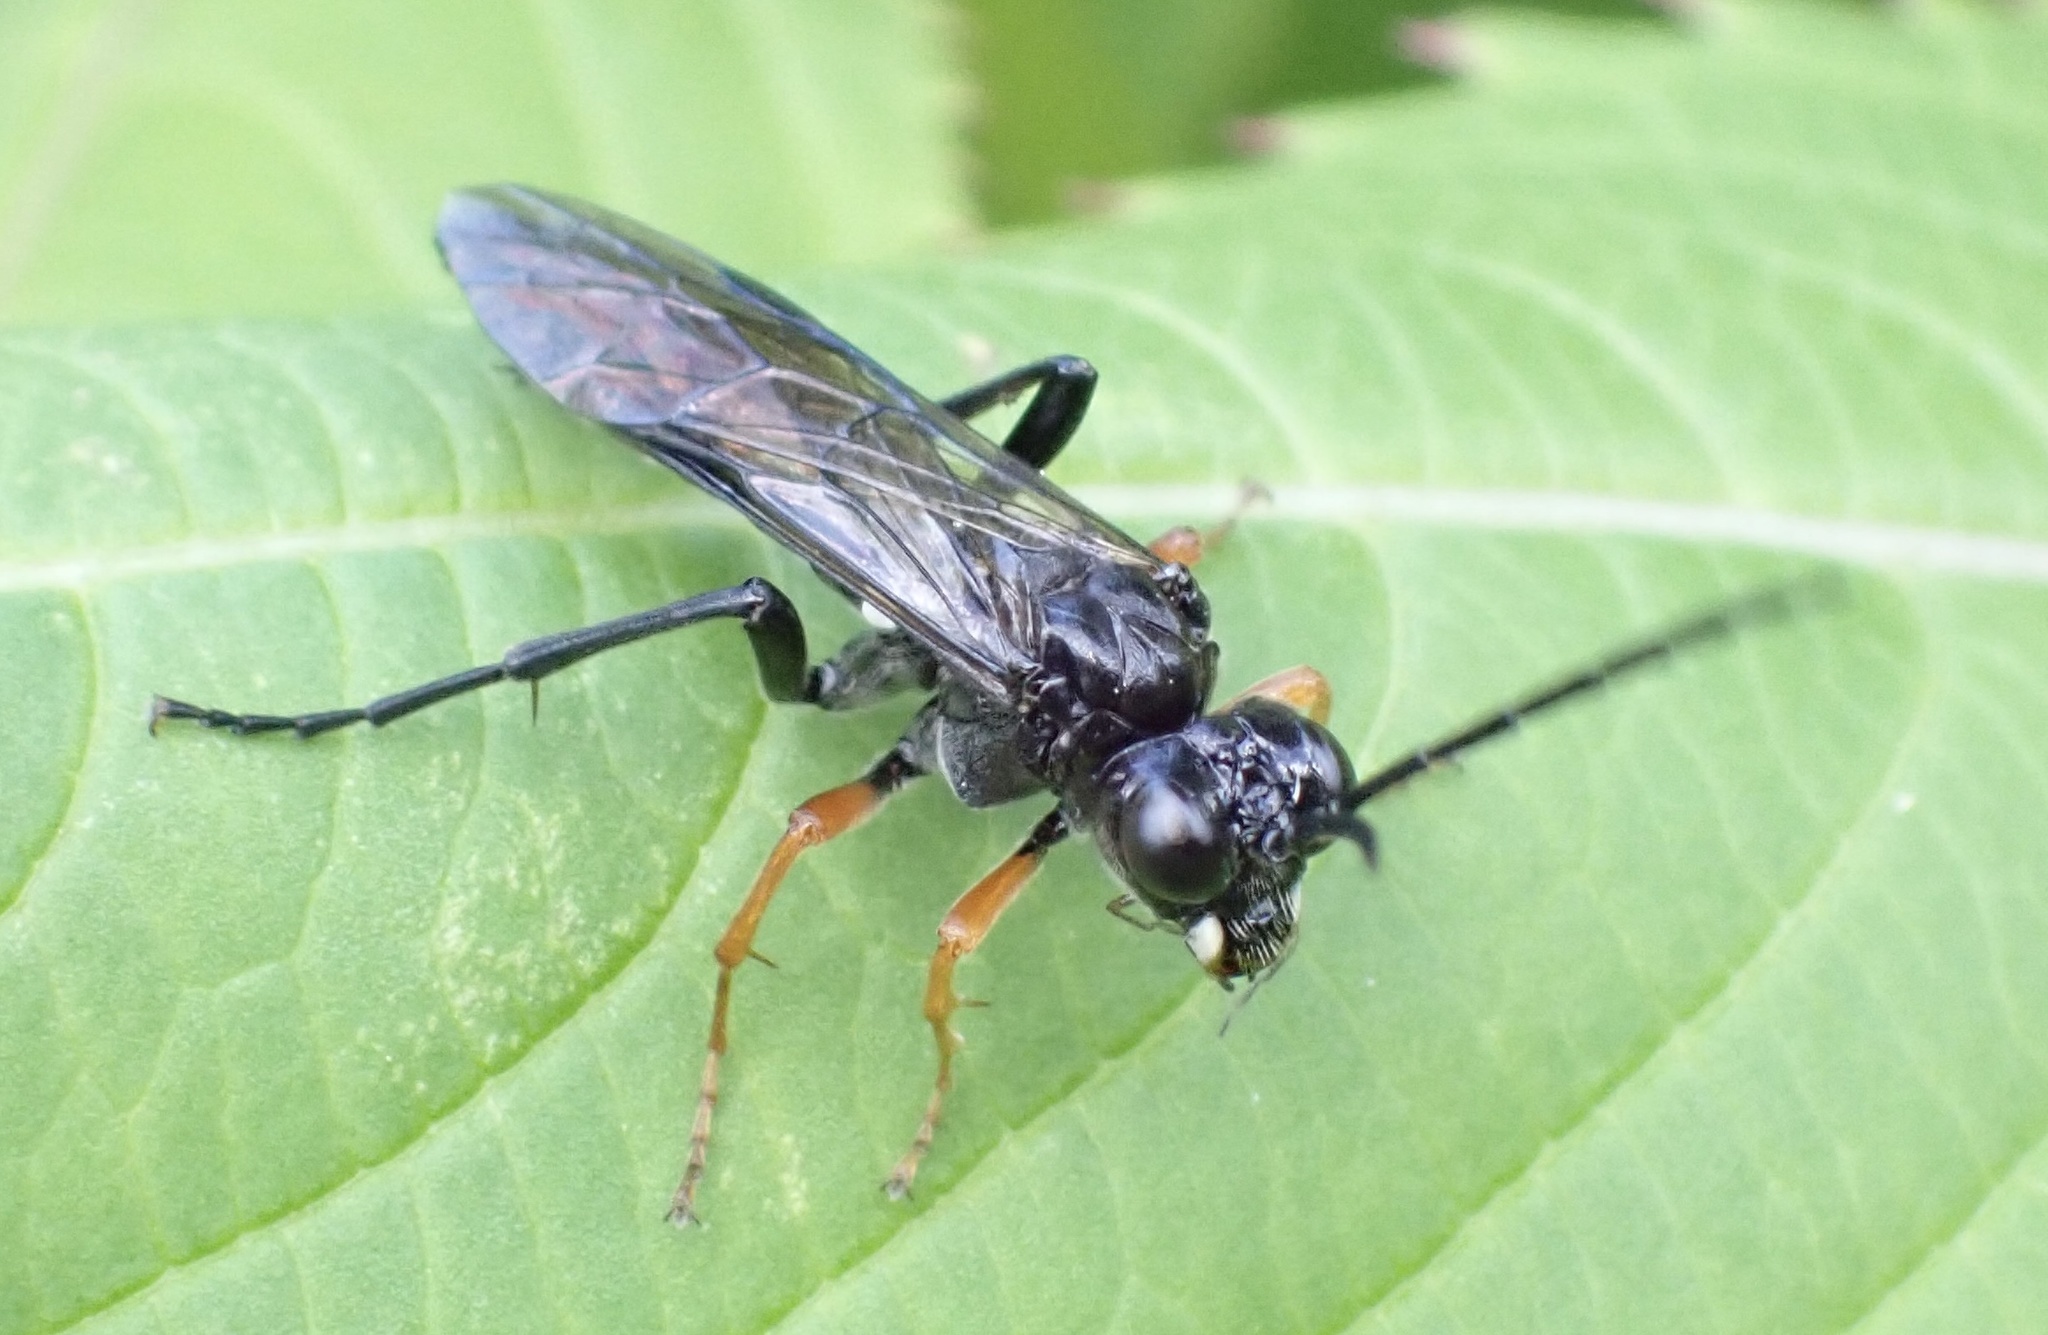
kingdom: Animalia
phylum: Arthropoda
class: Insecta
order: Hymenoptera
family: Tenthredinidae
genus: Tenthredo
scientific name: Tenthredo mandibularis
